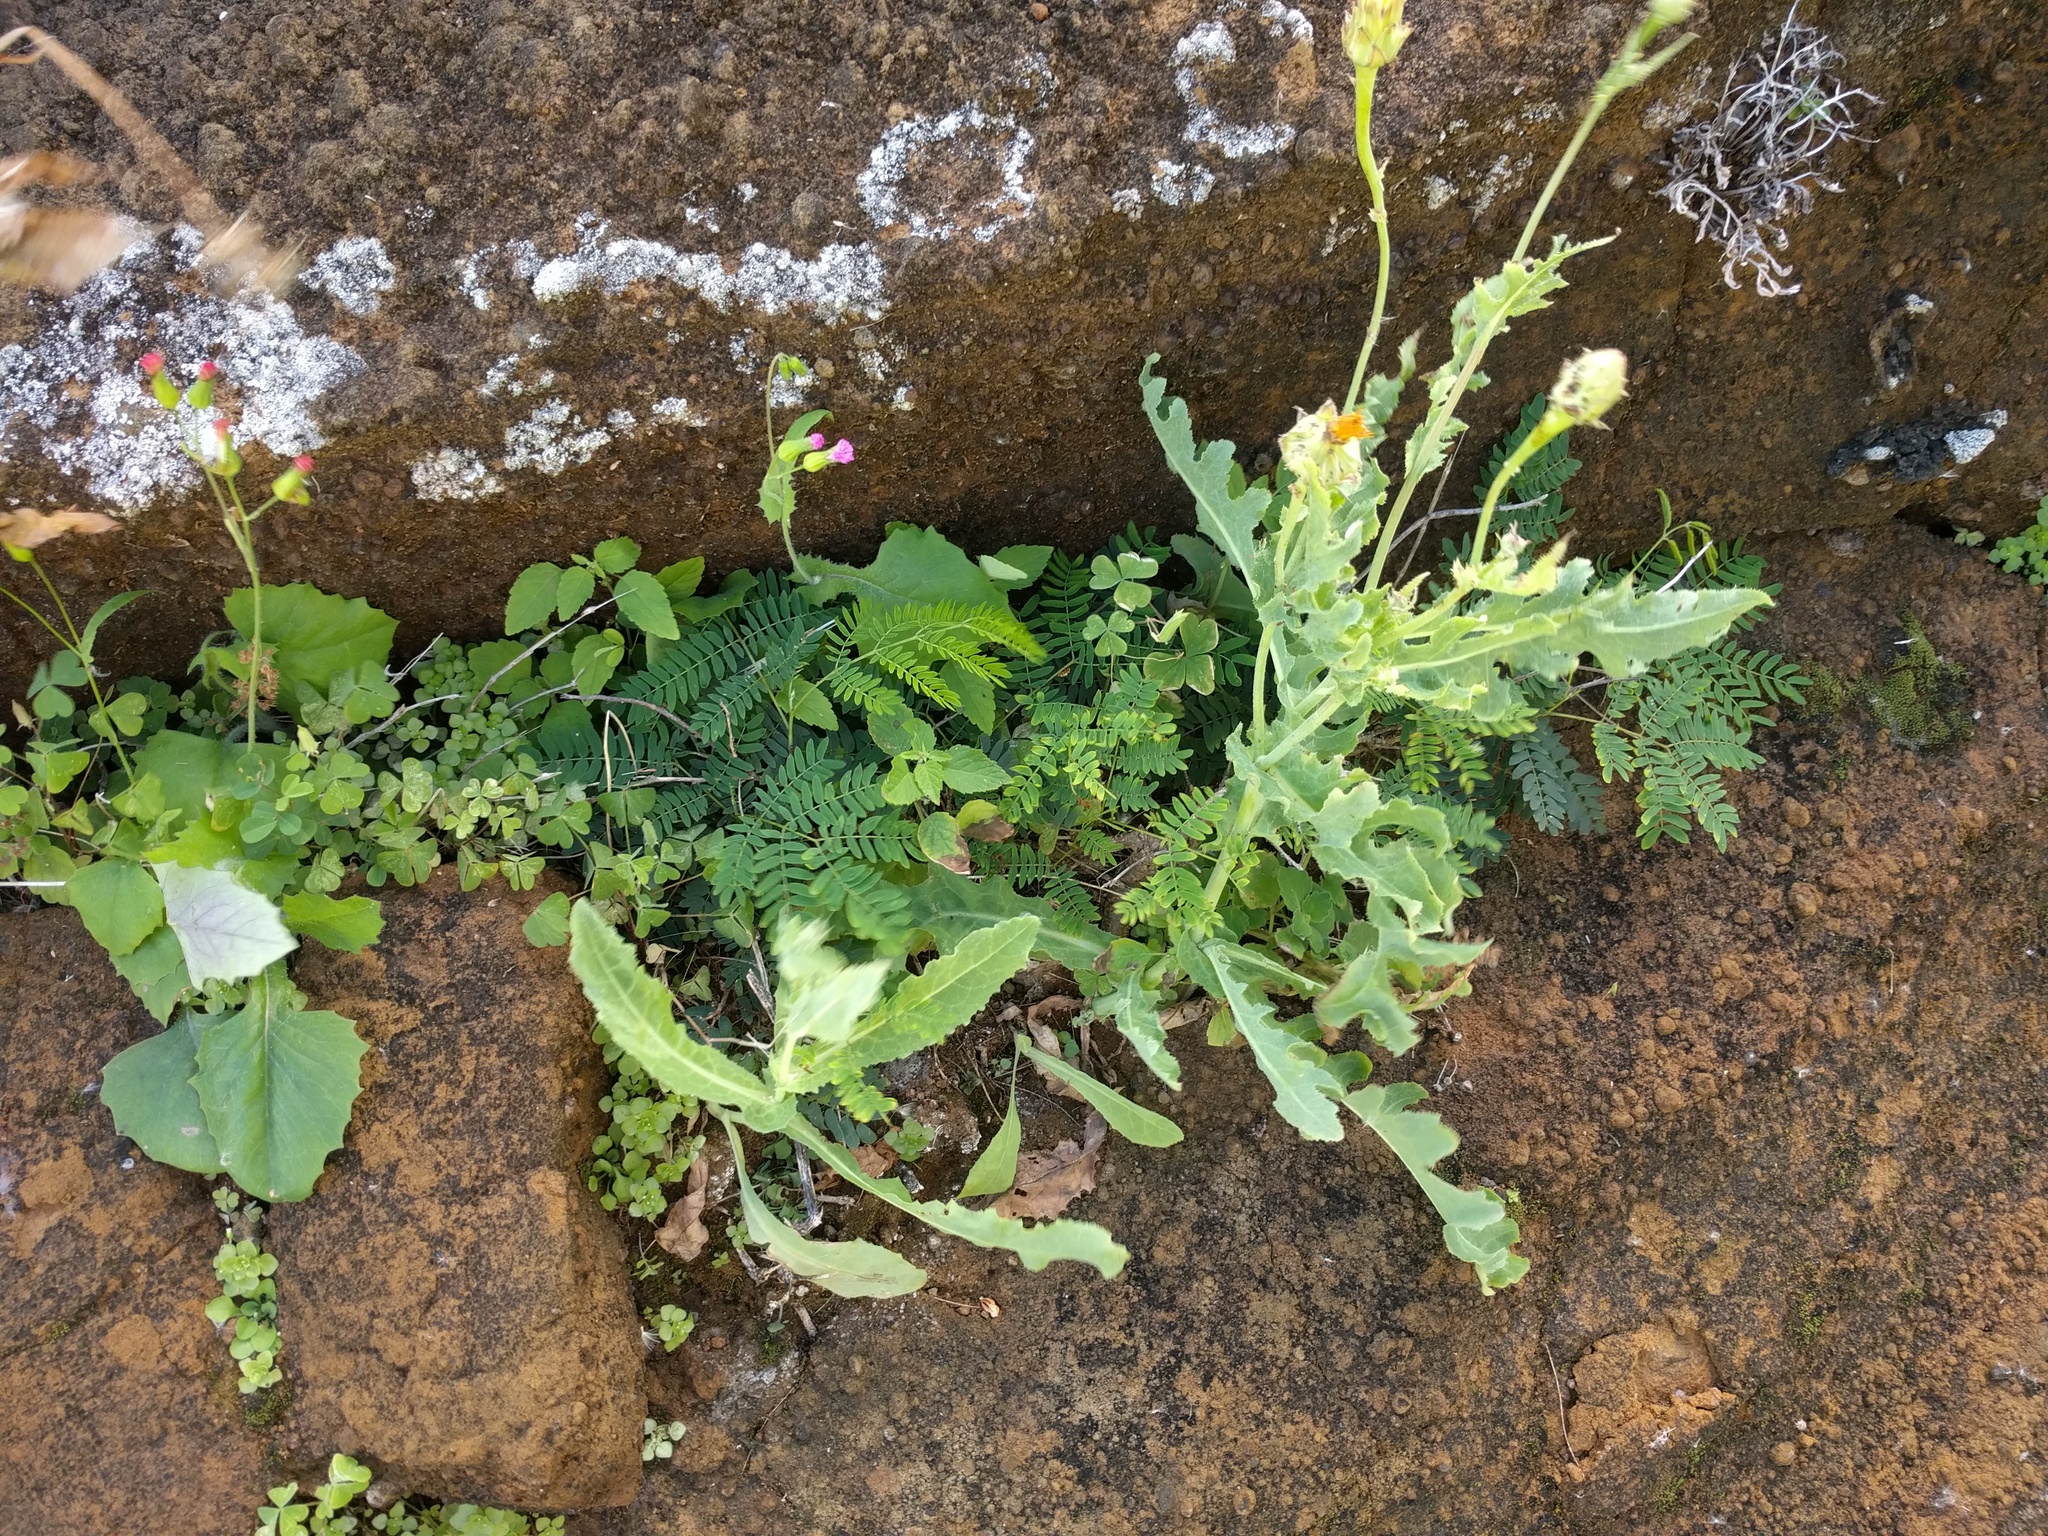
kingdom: Plantae
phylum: Tracheophyta
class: Magnoliopsida
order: Asterales
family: Asteraceae
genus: Emilia
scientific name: Emilia sonchifolia
